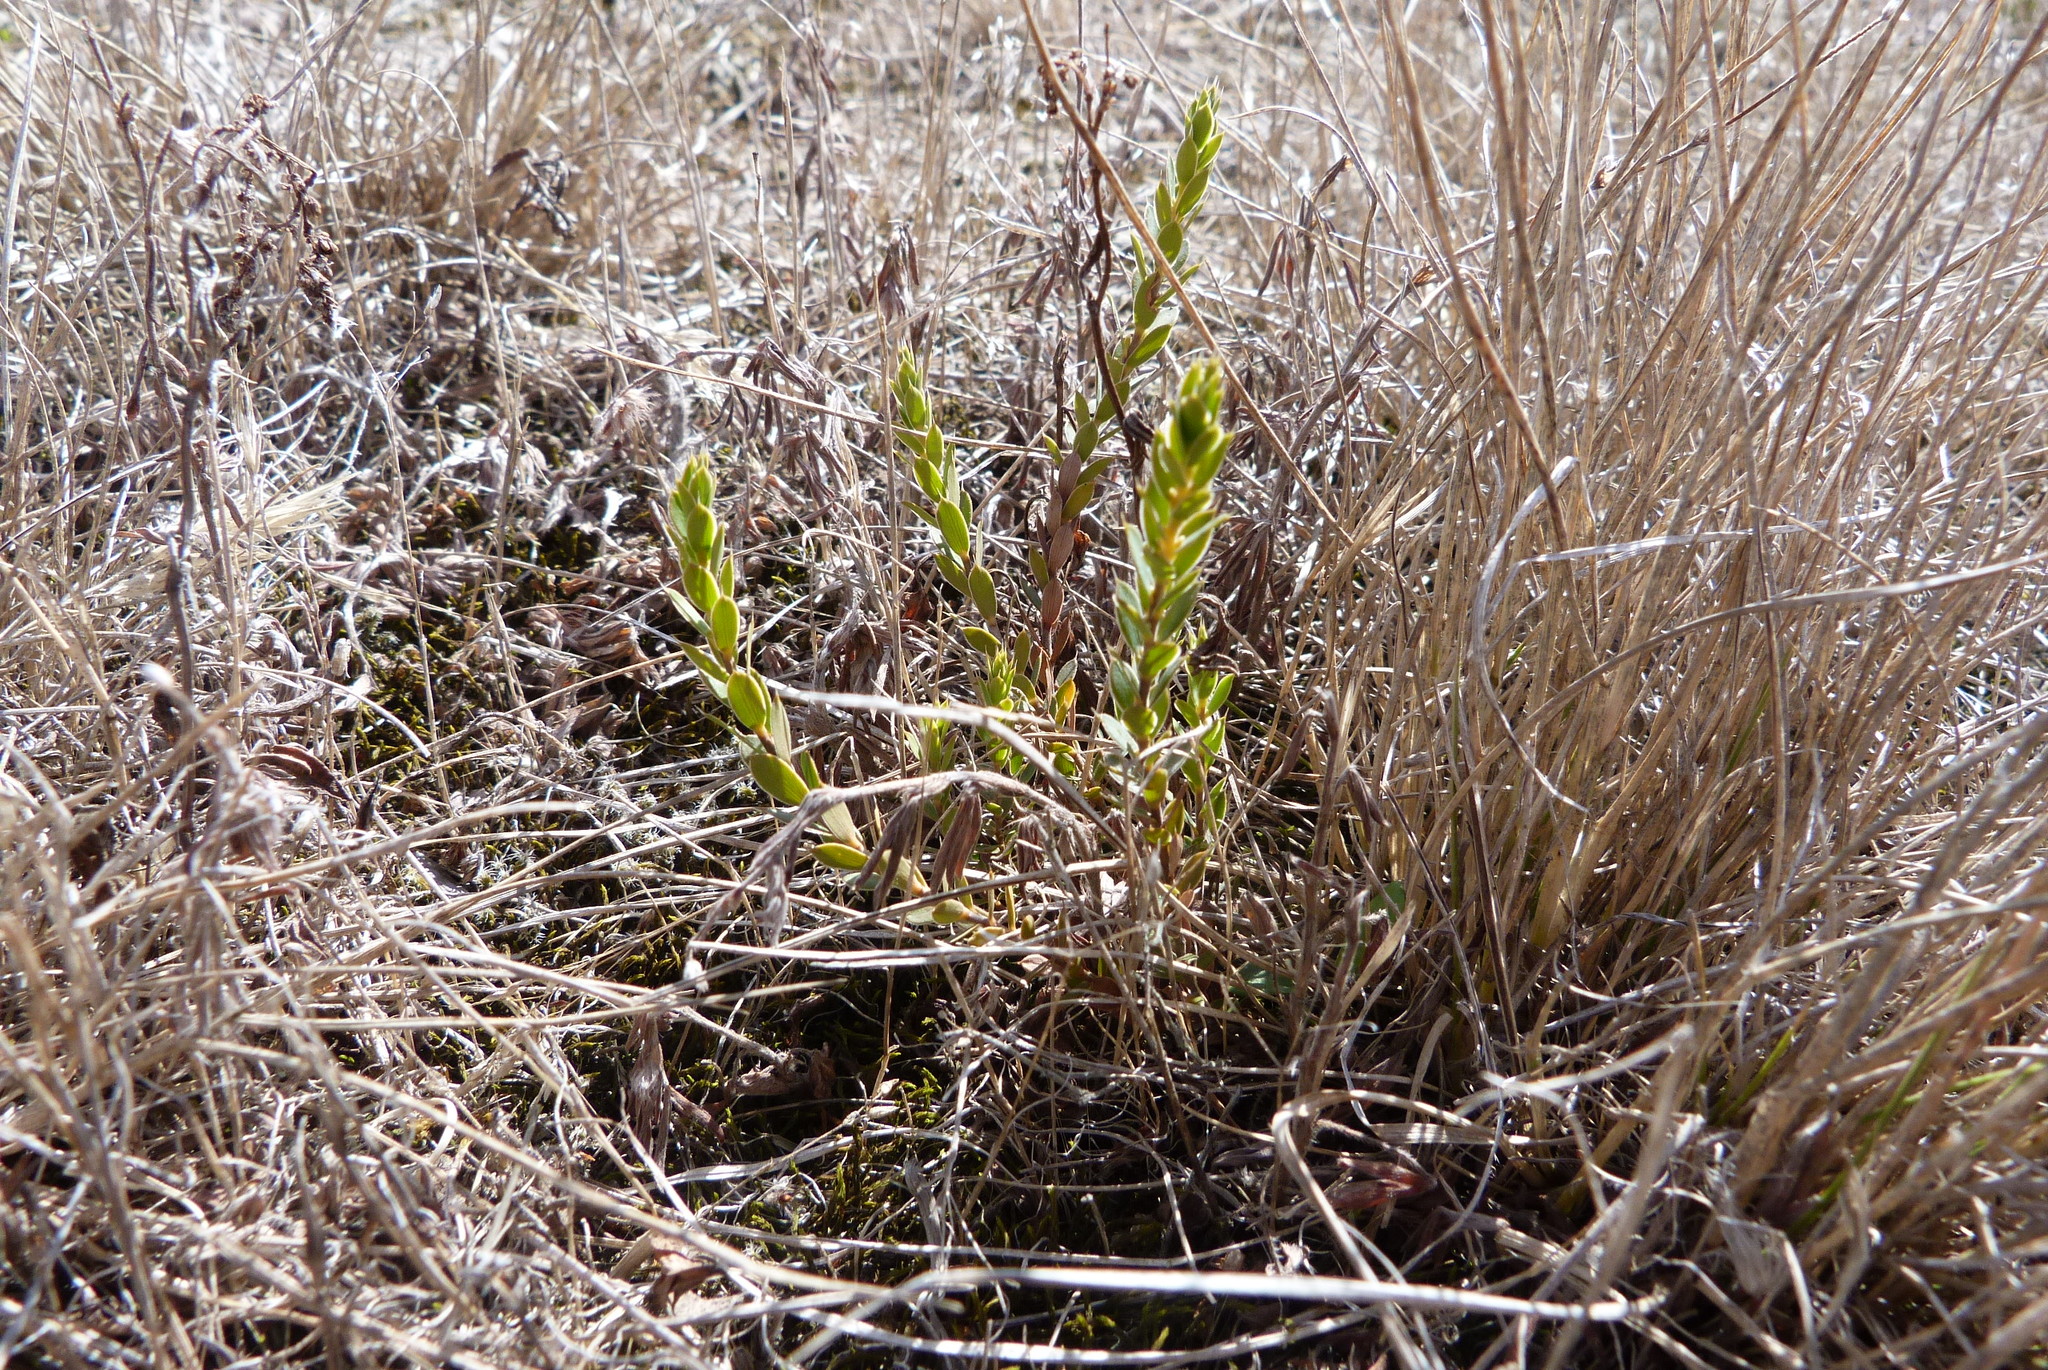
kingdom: Plantae
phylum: Tracheophyta
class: Magnoliopsida
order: Ericales
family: Ericaceae
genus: Styphelia
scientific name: Styphelia nesophila
